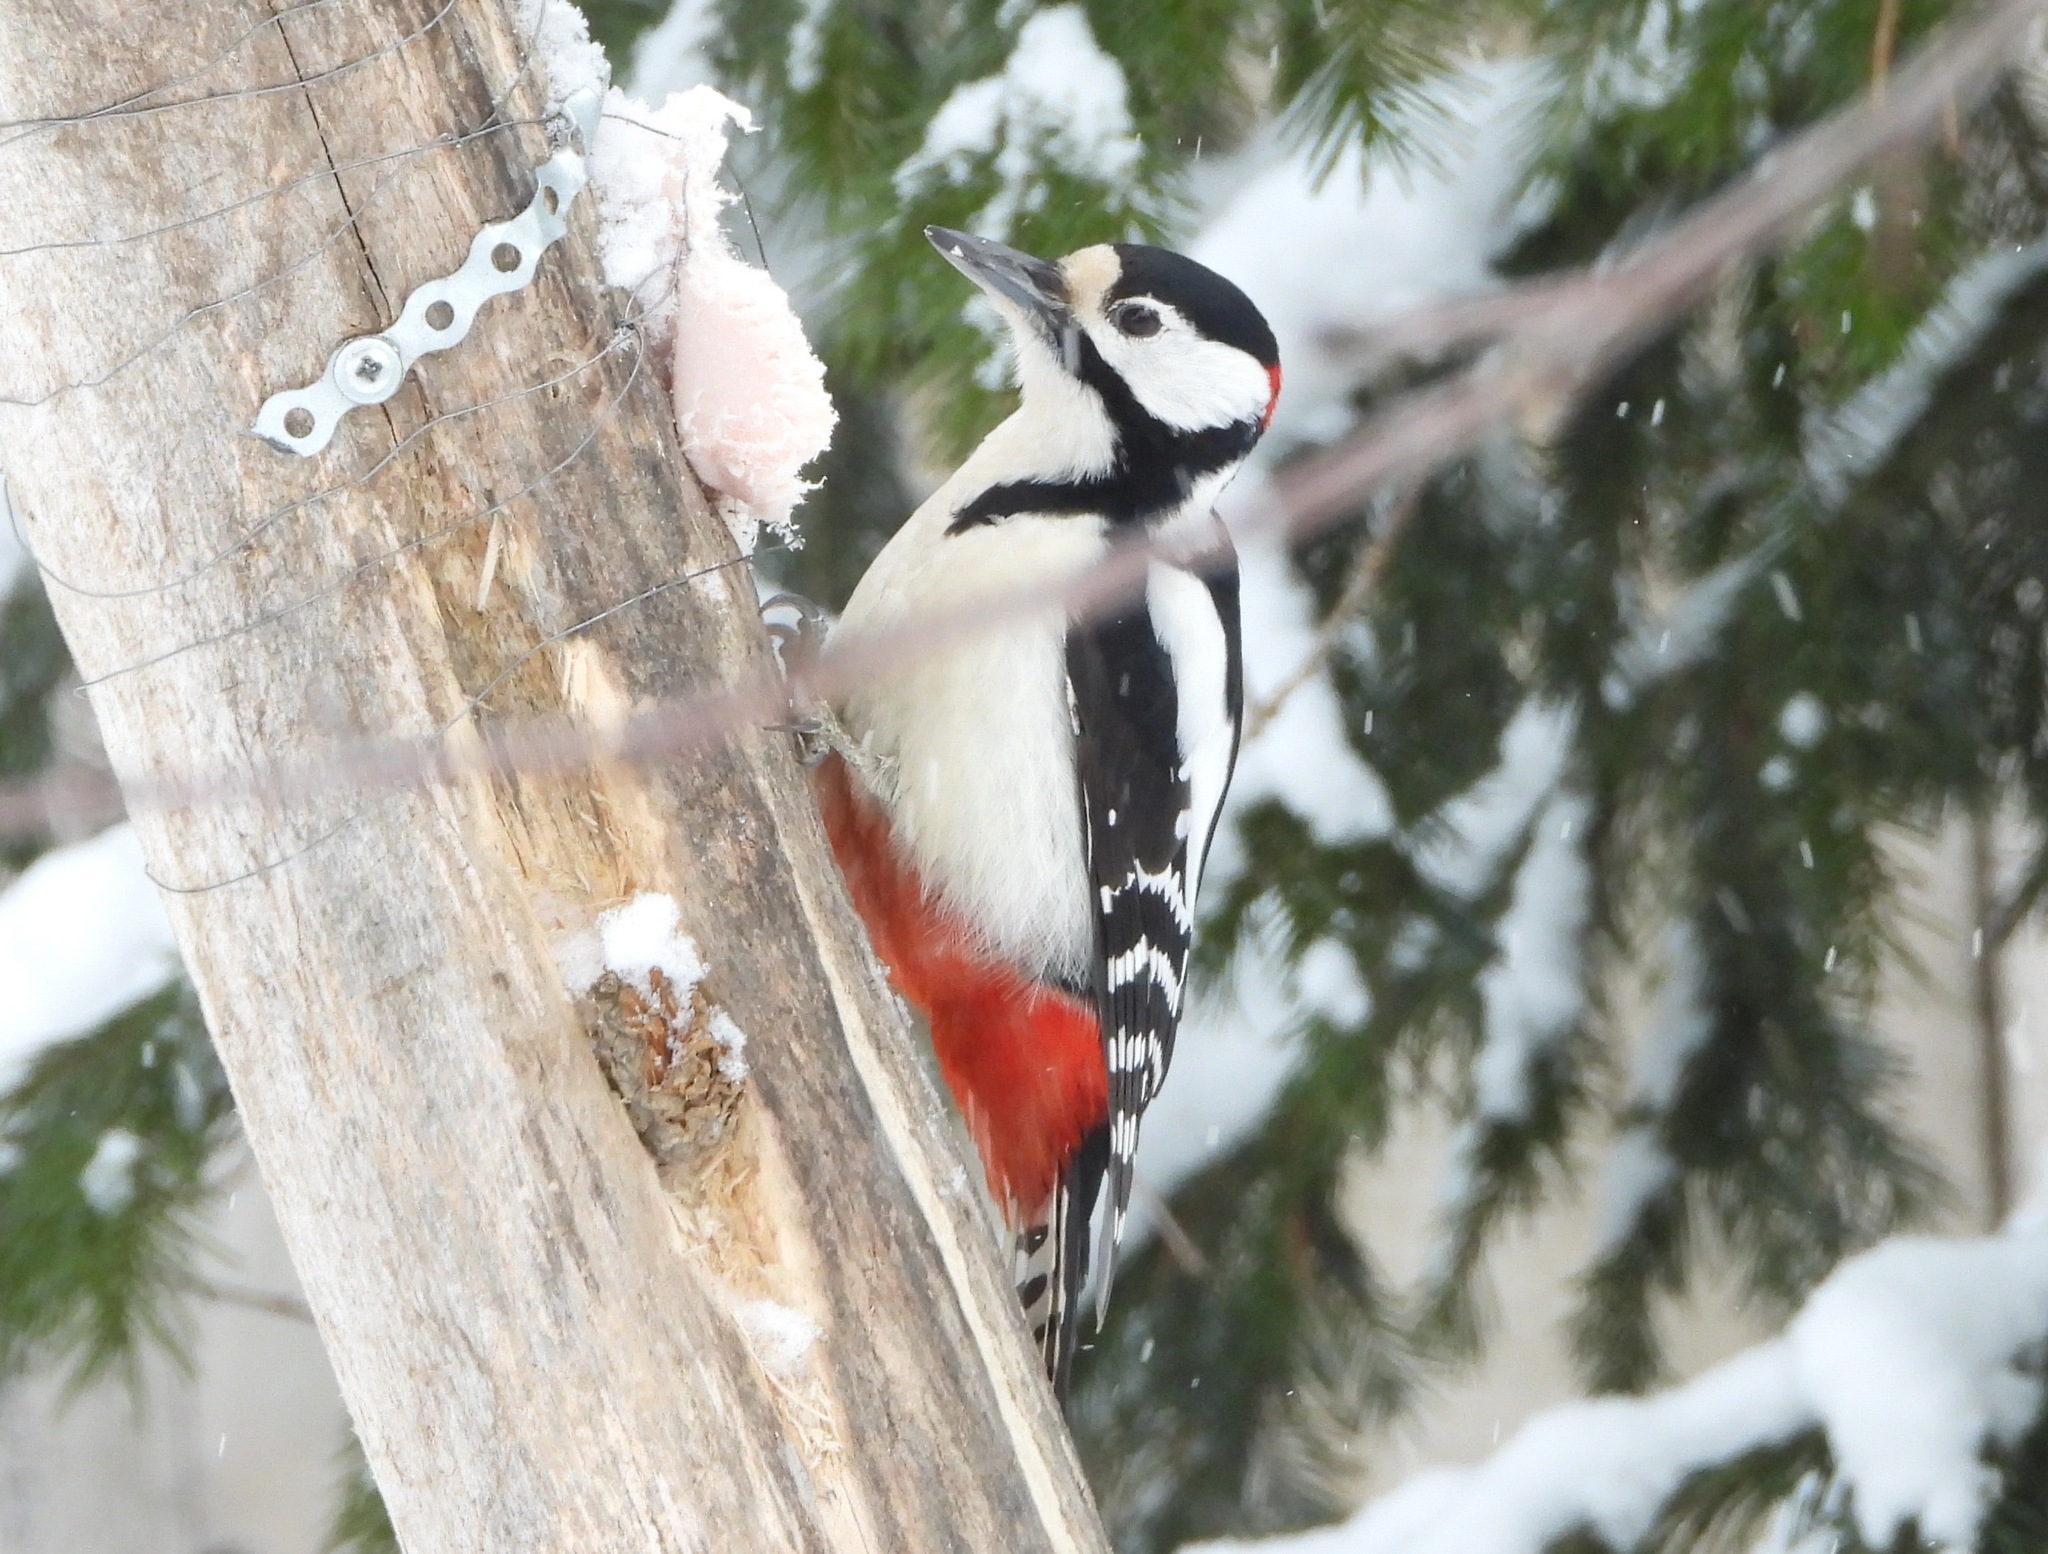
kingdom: Animalia
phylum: Chordata
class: Aves
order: Piciformes
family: Picidae
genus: Dendrocopos
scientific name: Dendrocopos major
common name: Great spotted woodpecker
